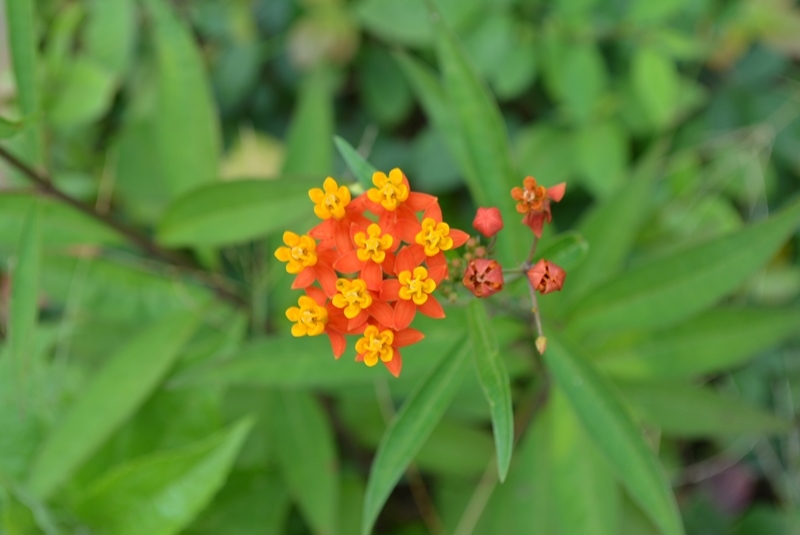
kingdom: Plantae
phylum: Tracheophyta
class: Magnoliopsida
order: Gentianales
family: Apocynaceae
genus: Asclepias
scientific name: Asclepias curassavica
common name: Bloodflower
